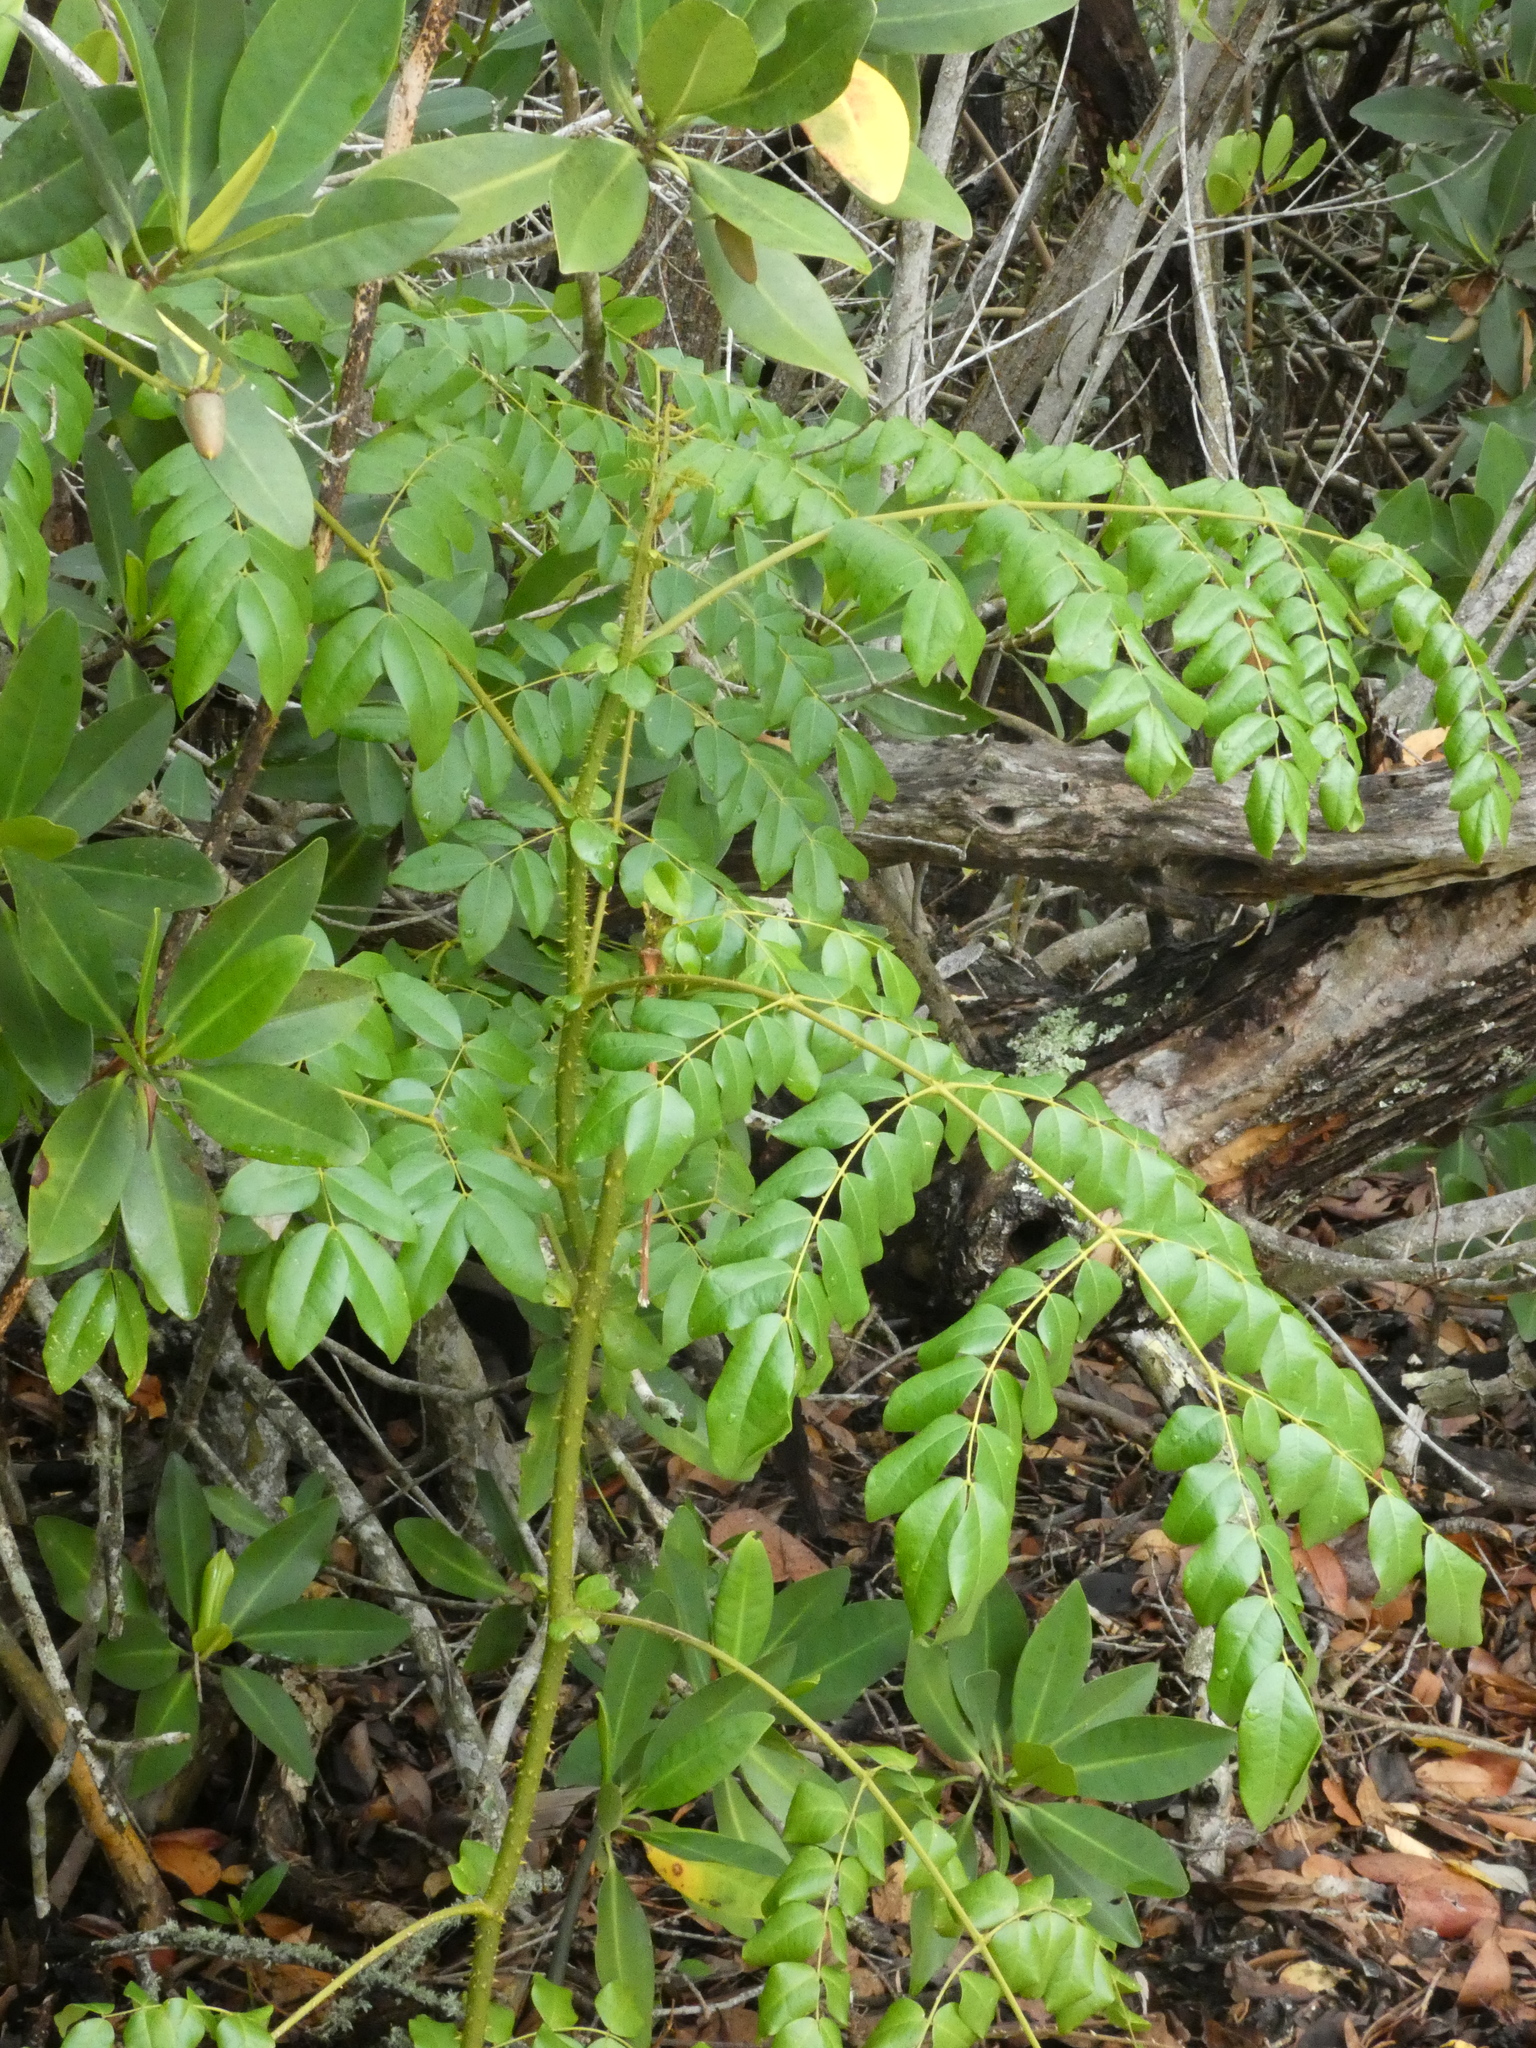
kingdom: Plantae
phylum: Tracheophyta
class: Magnoliopsida
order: Fabales
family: Fabaceae
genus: Guilandina
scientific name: Guilandina bonduc
